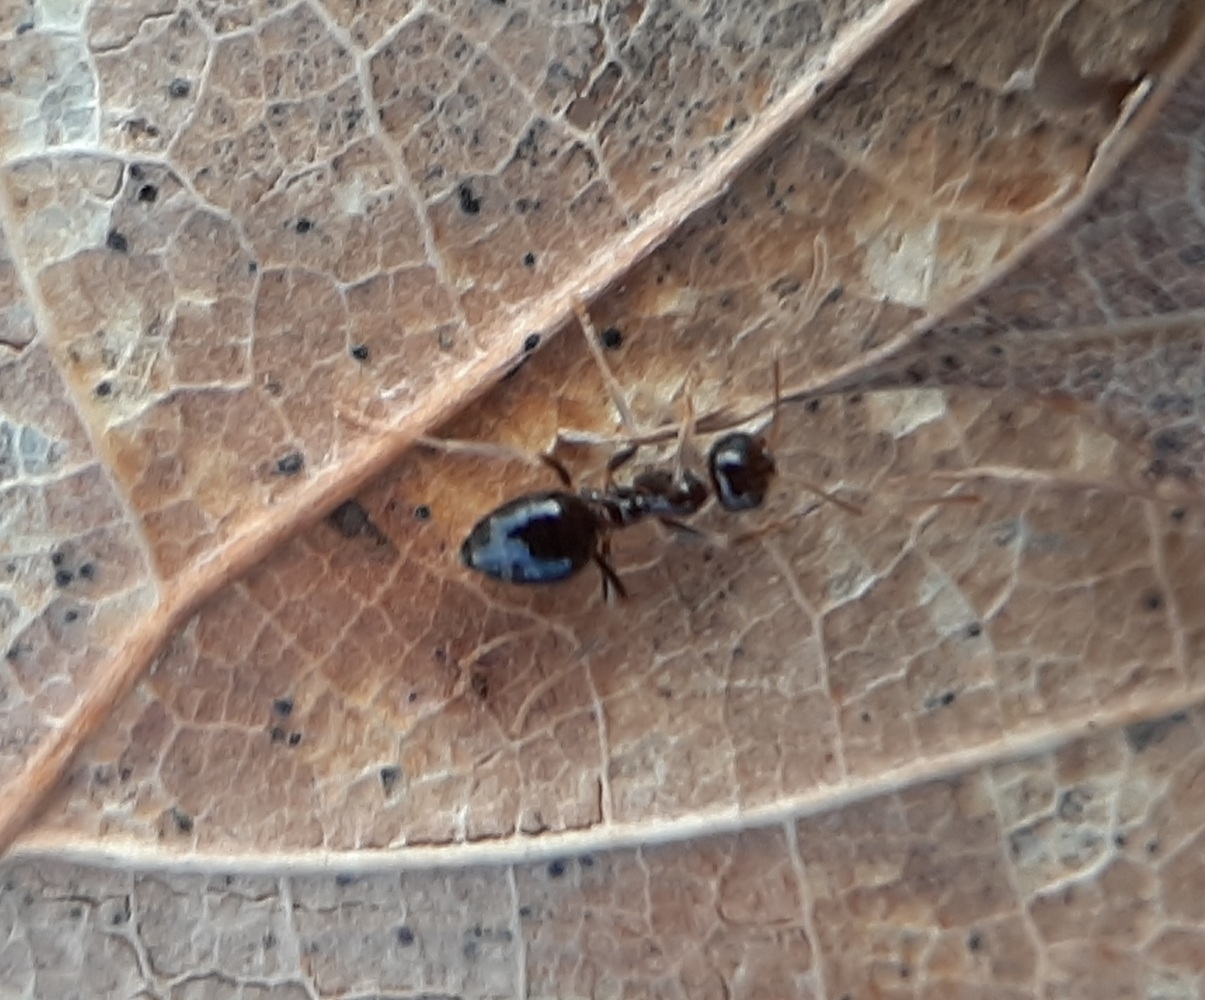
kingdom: Animalia
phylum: Arthropoda
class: Insecta
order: Hymenoptera
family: Formicidae
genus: Prenolepis
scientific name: Prenolepis imparis
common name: Small honey ant
